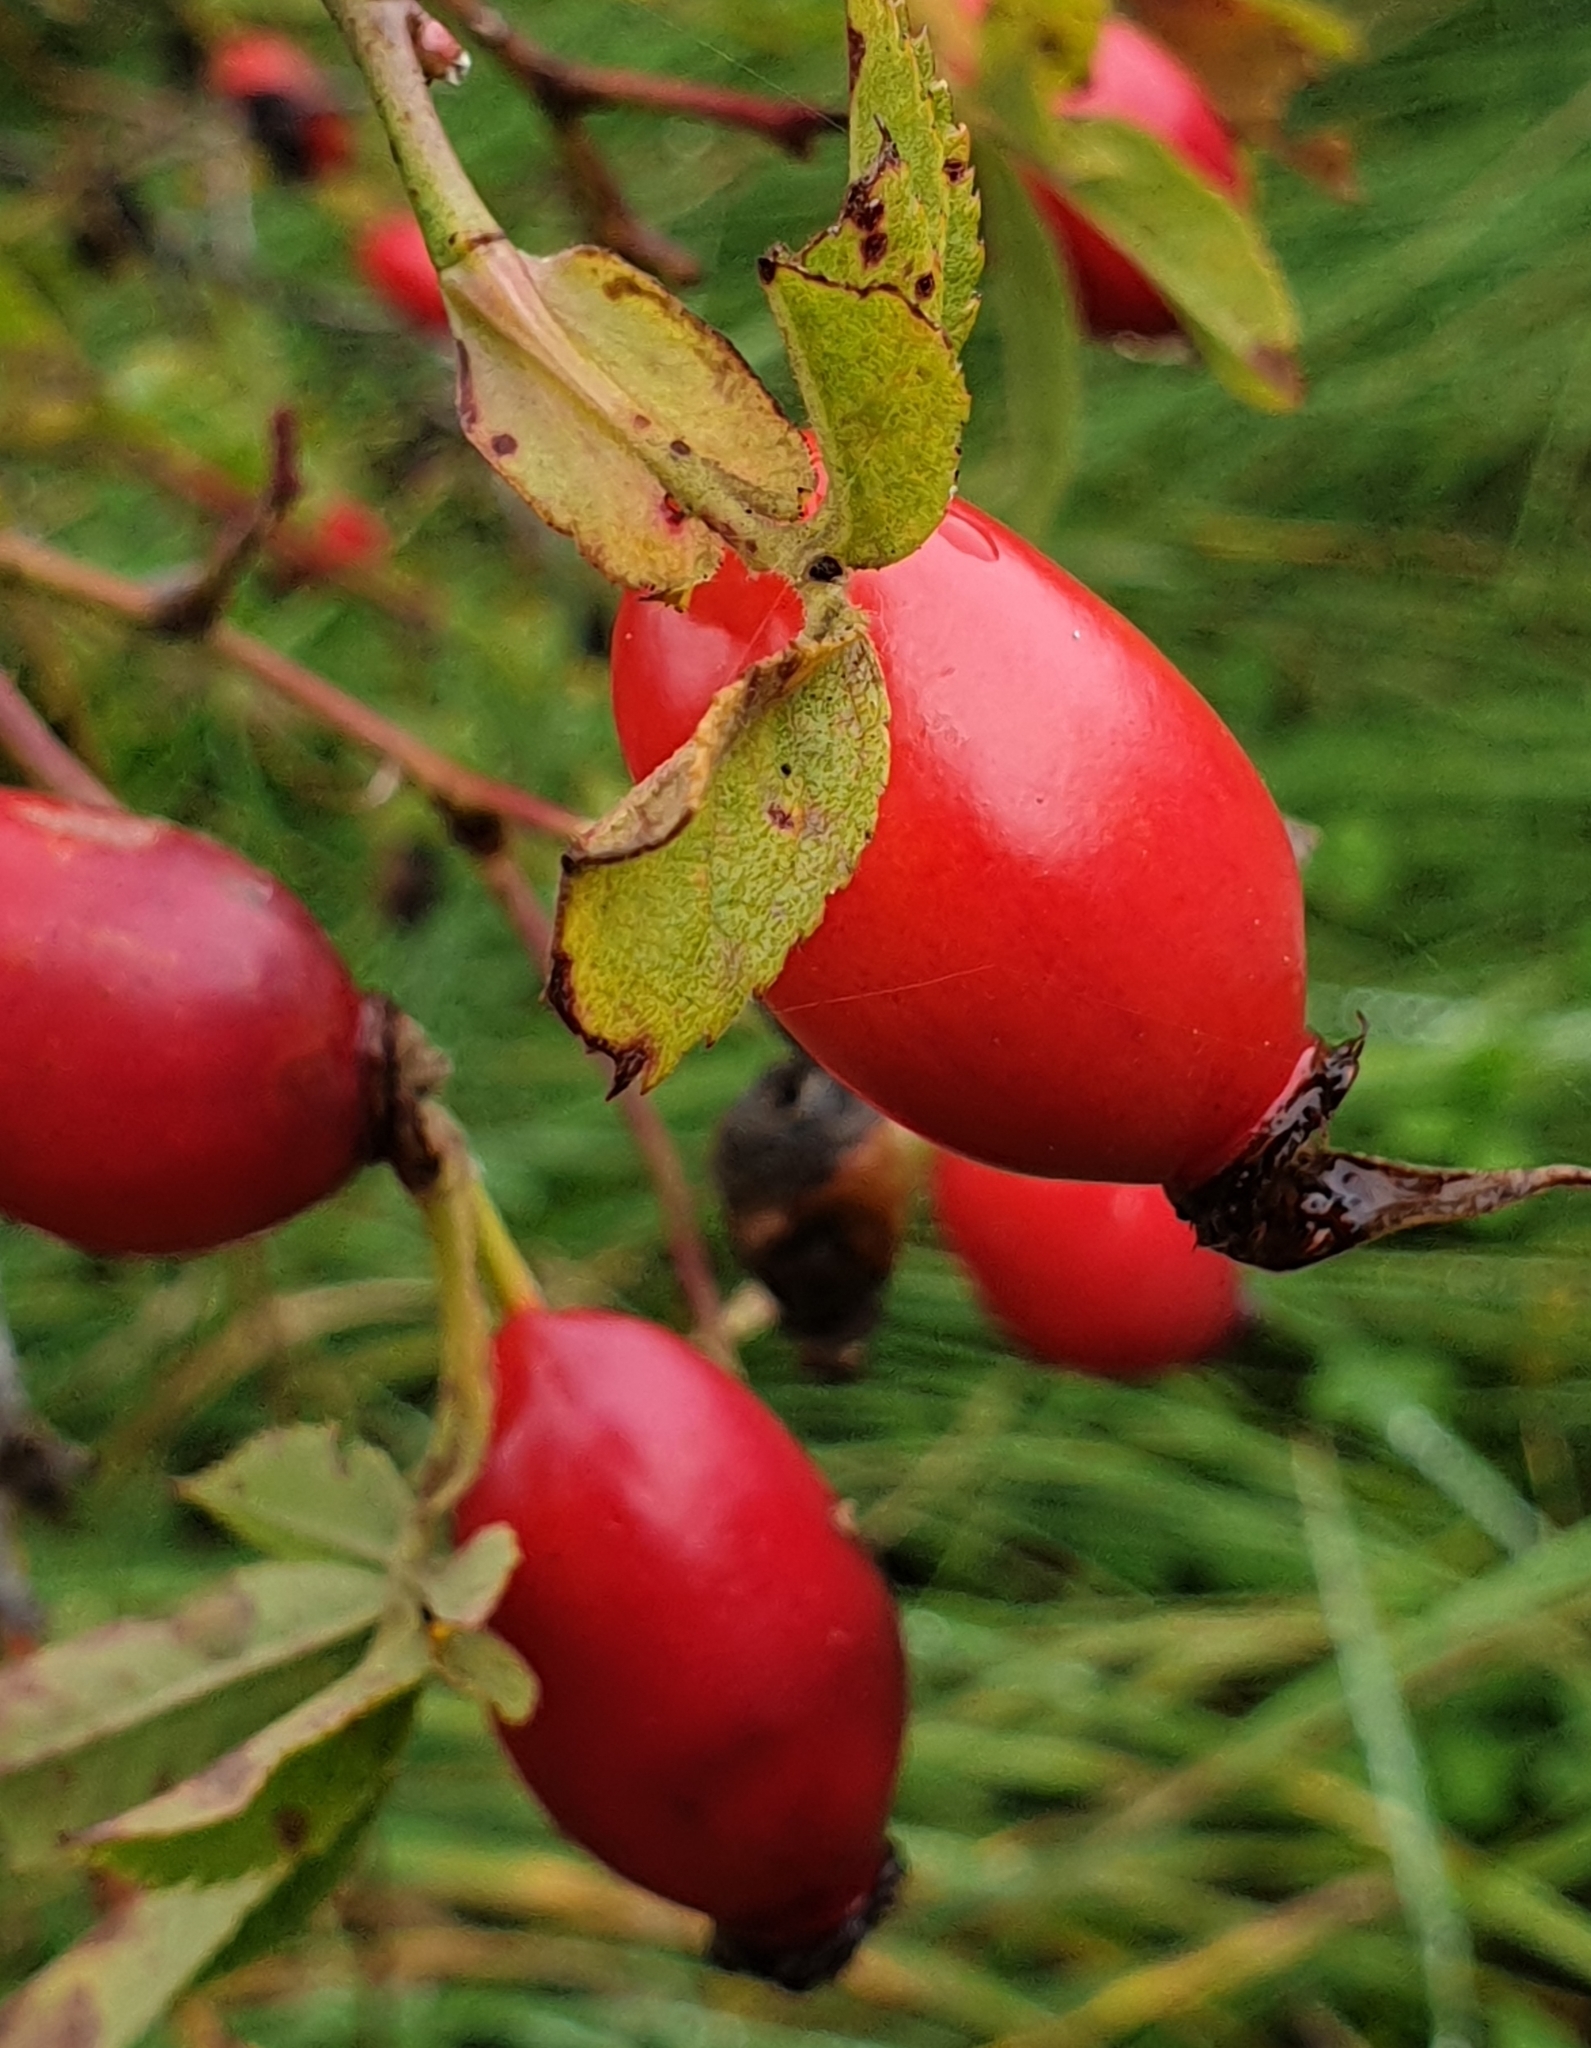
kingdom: Plantae
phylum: Tracheophyta
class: Magnoliopsida
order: Rosales
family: Rosaceae
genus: Rosa
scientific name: Rosa canina
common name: Dog rose
